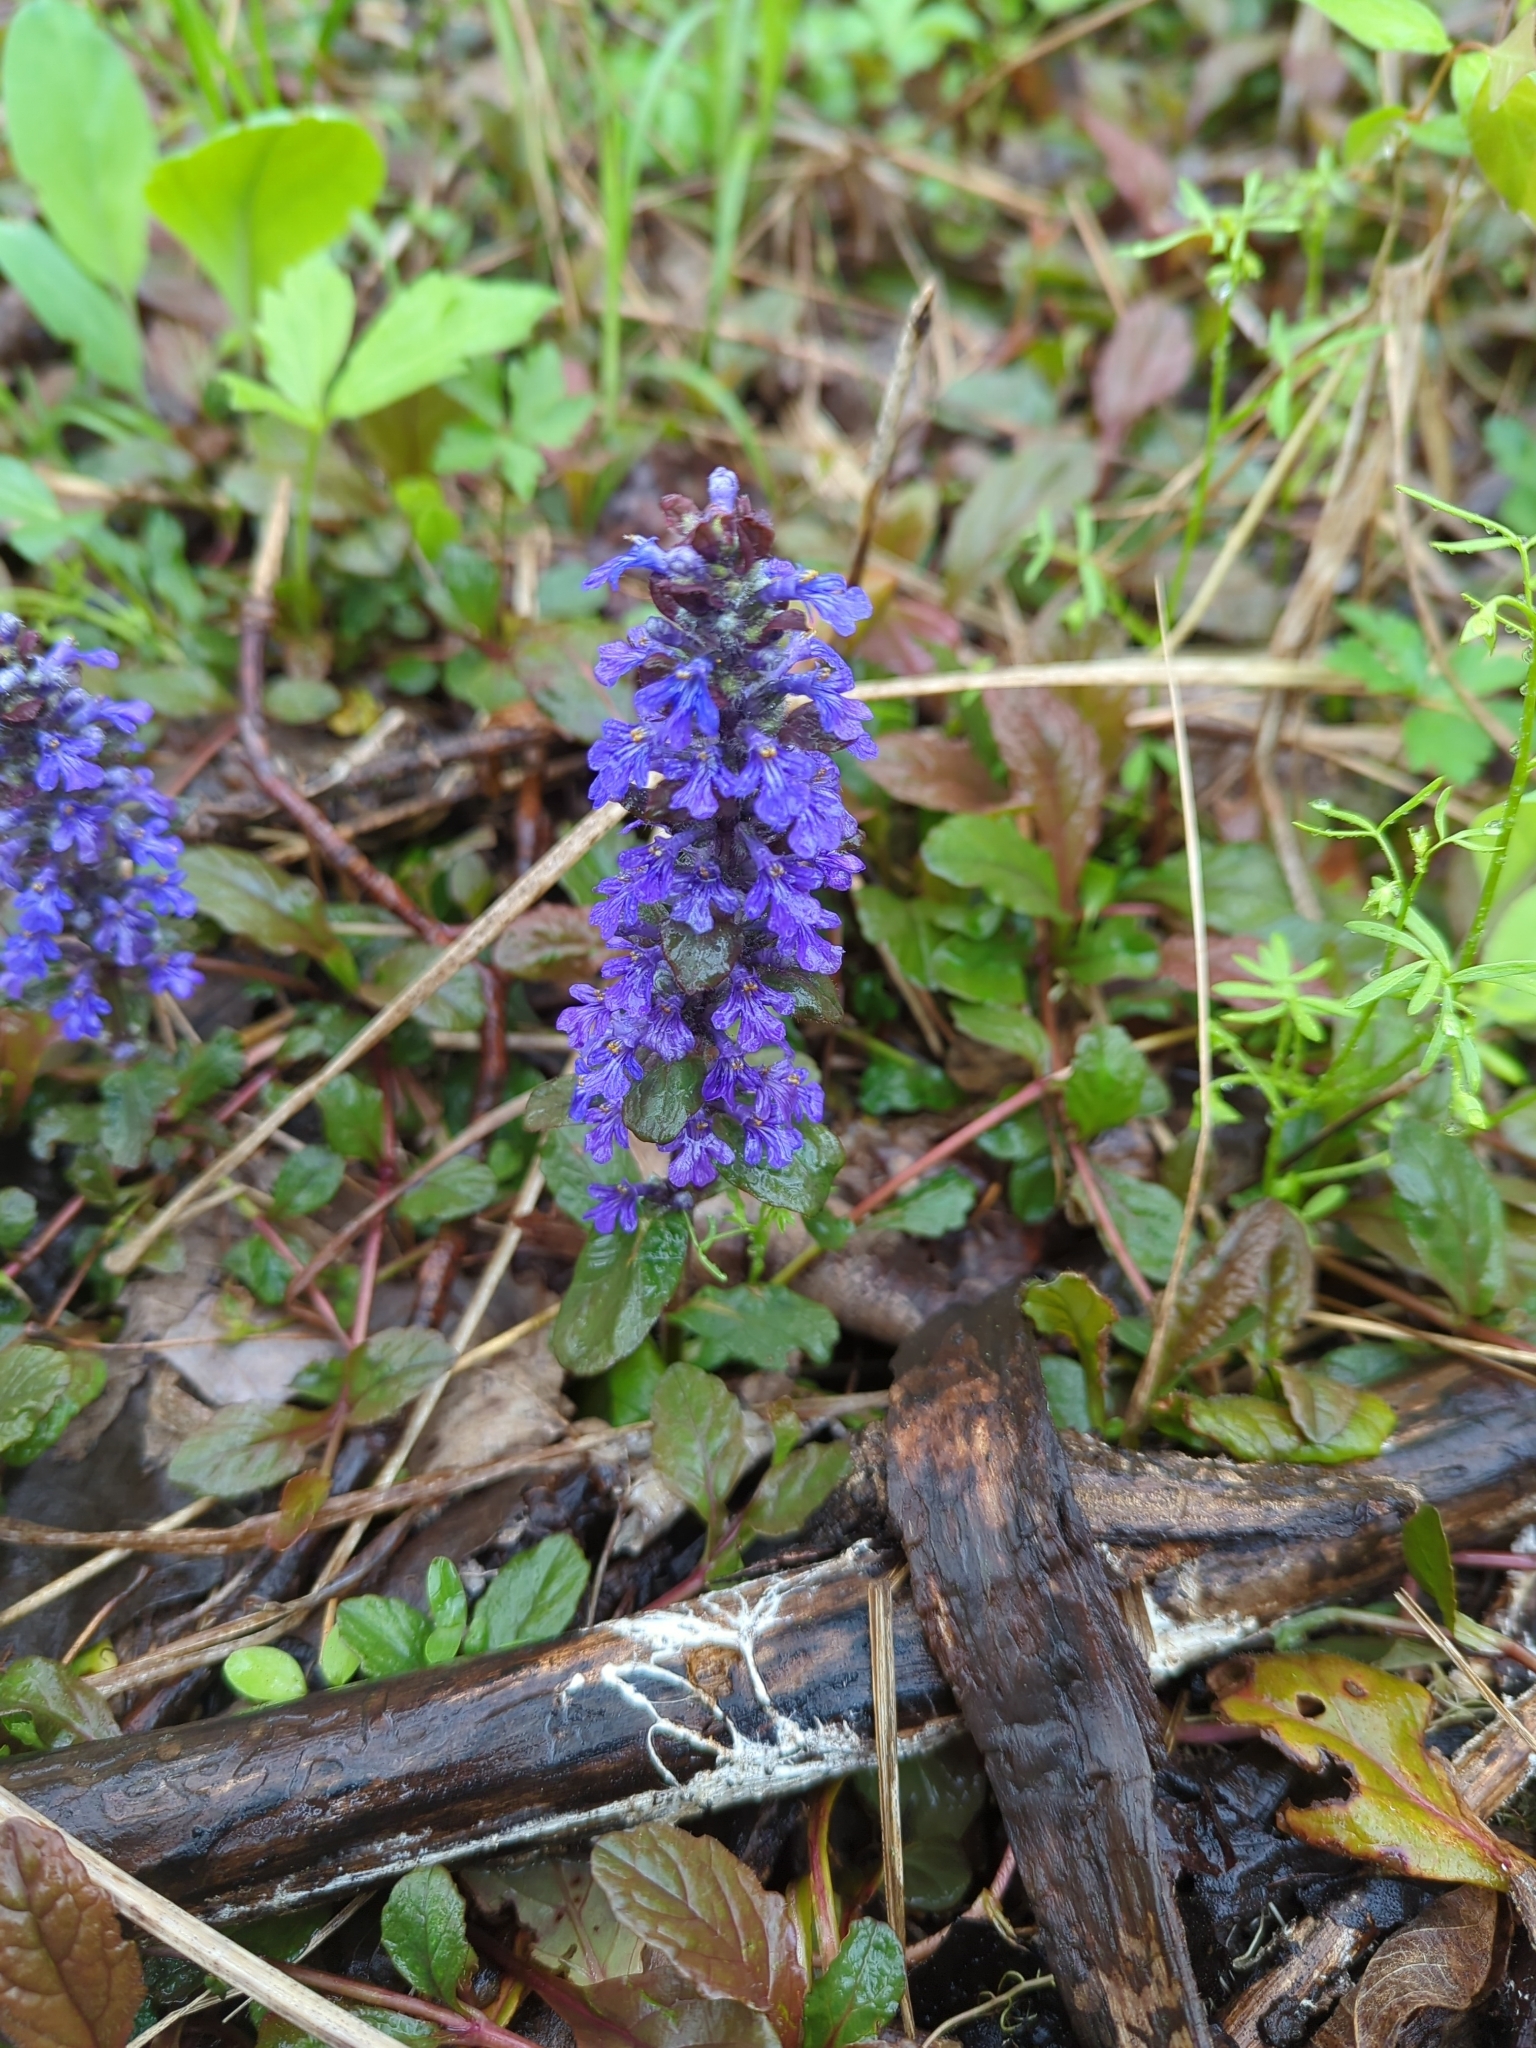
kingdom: Plantae
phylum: Tracheophyta
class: Magnoliopsida
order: Lamiales
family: Lamiaceae
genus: Ajuga
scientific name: Ajuga reptans
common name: Bugle
